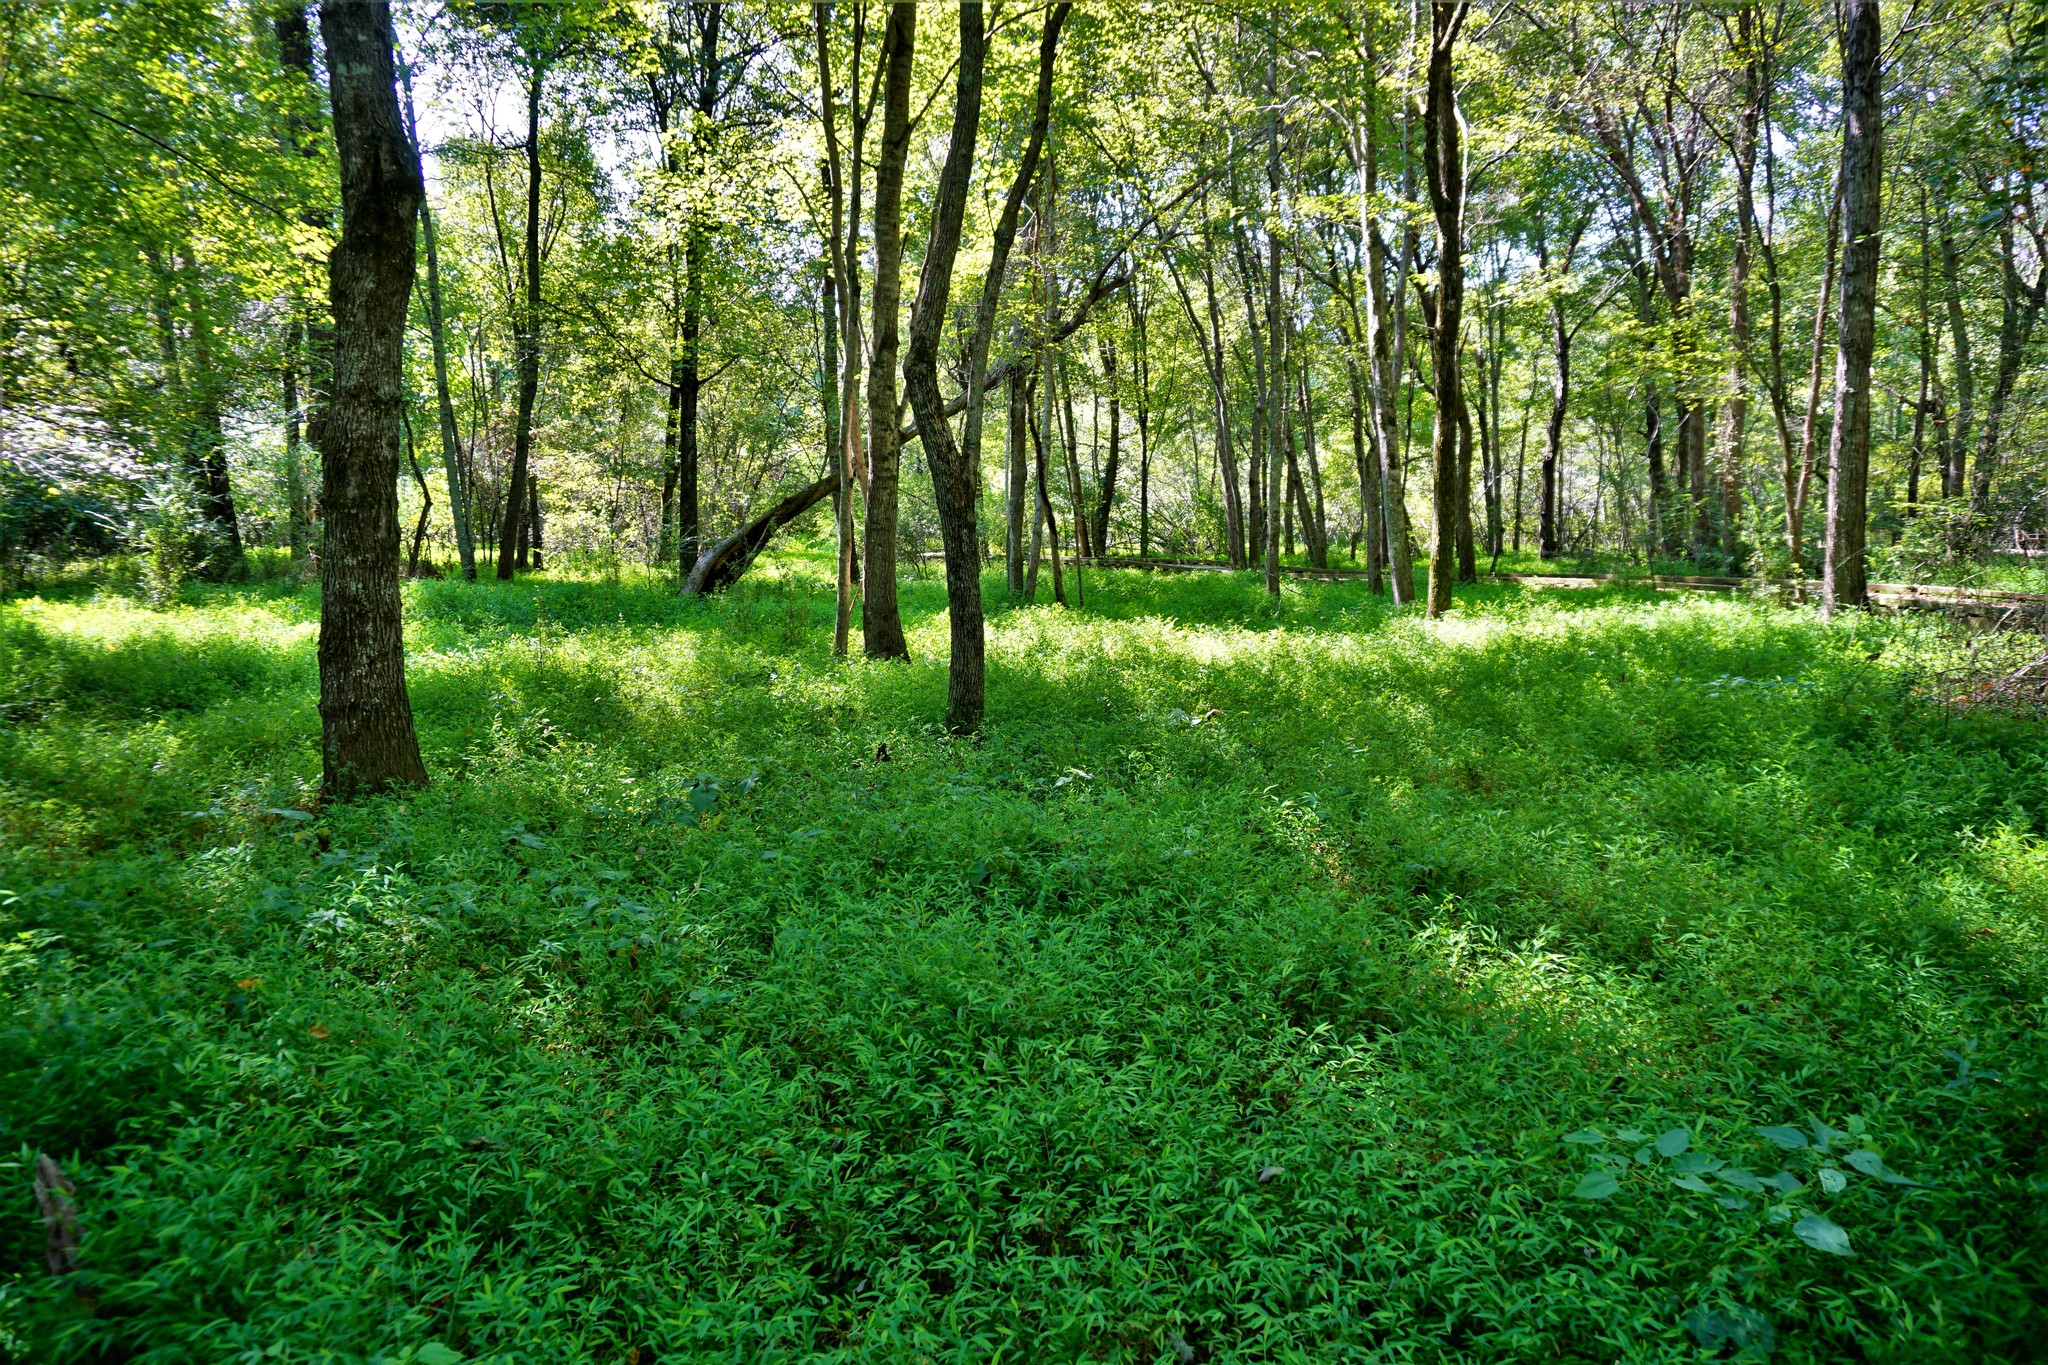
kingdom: Plantae
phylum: Tracheophyta
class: Liliopsida
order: Poales
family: Poaceae
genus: Microstegium
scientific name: Microstegium vimineum
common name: Japanese stiltgrass
